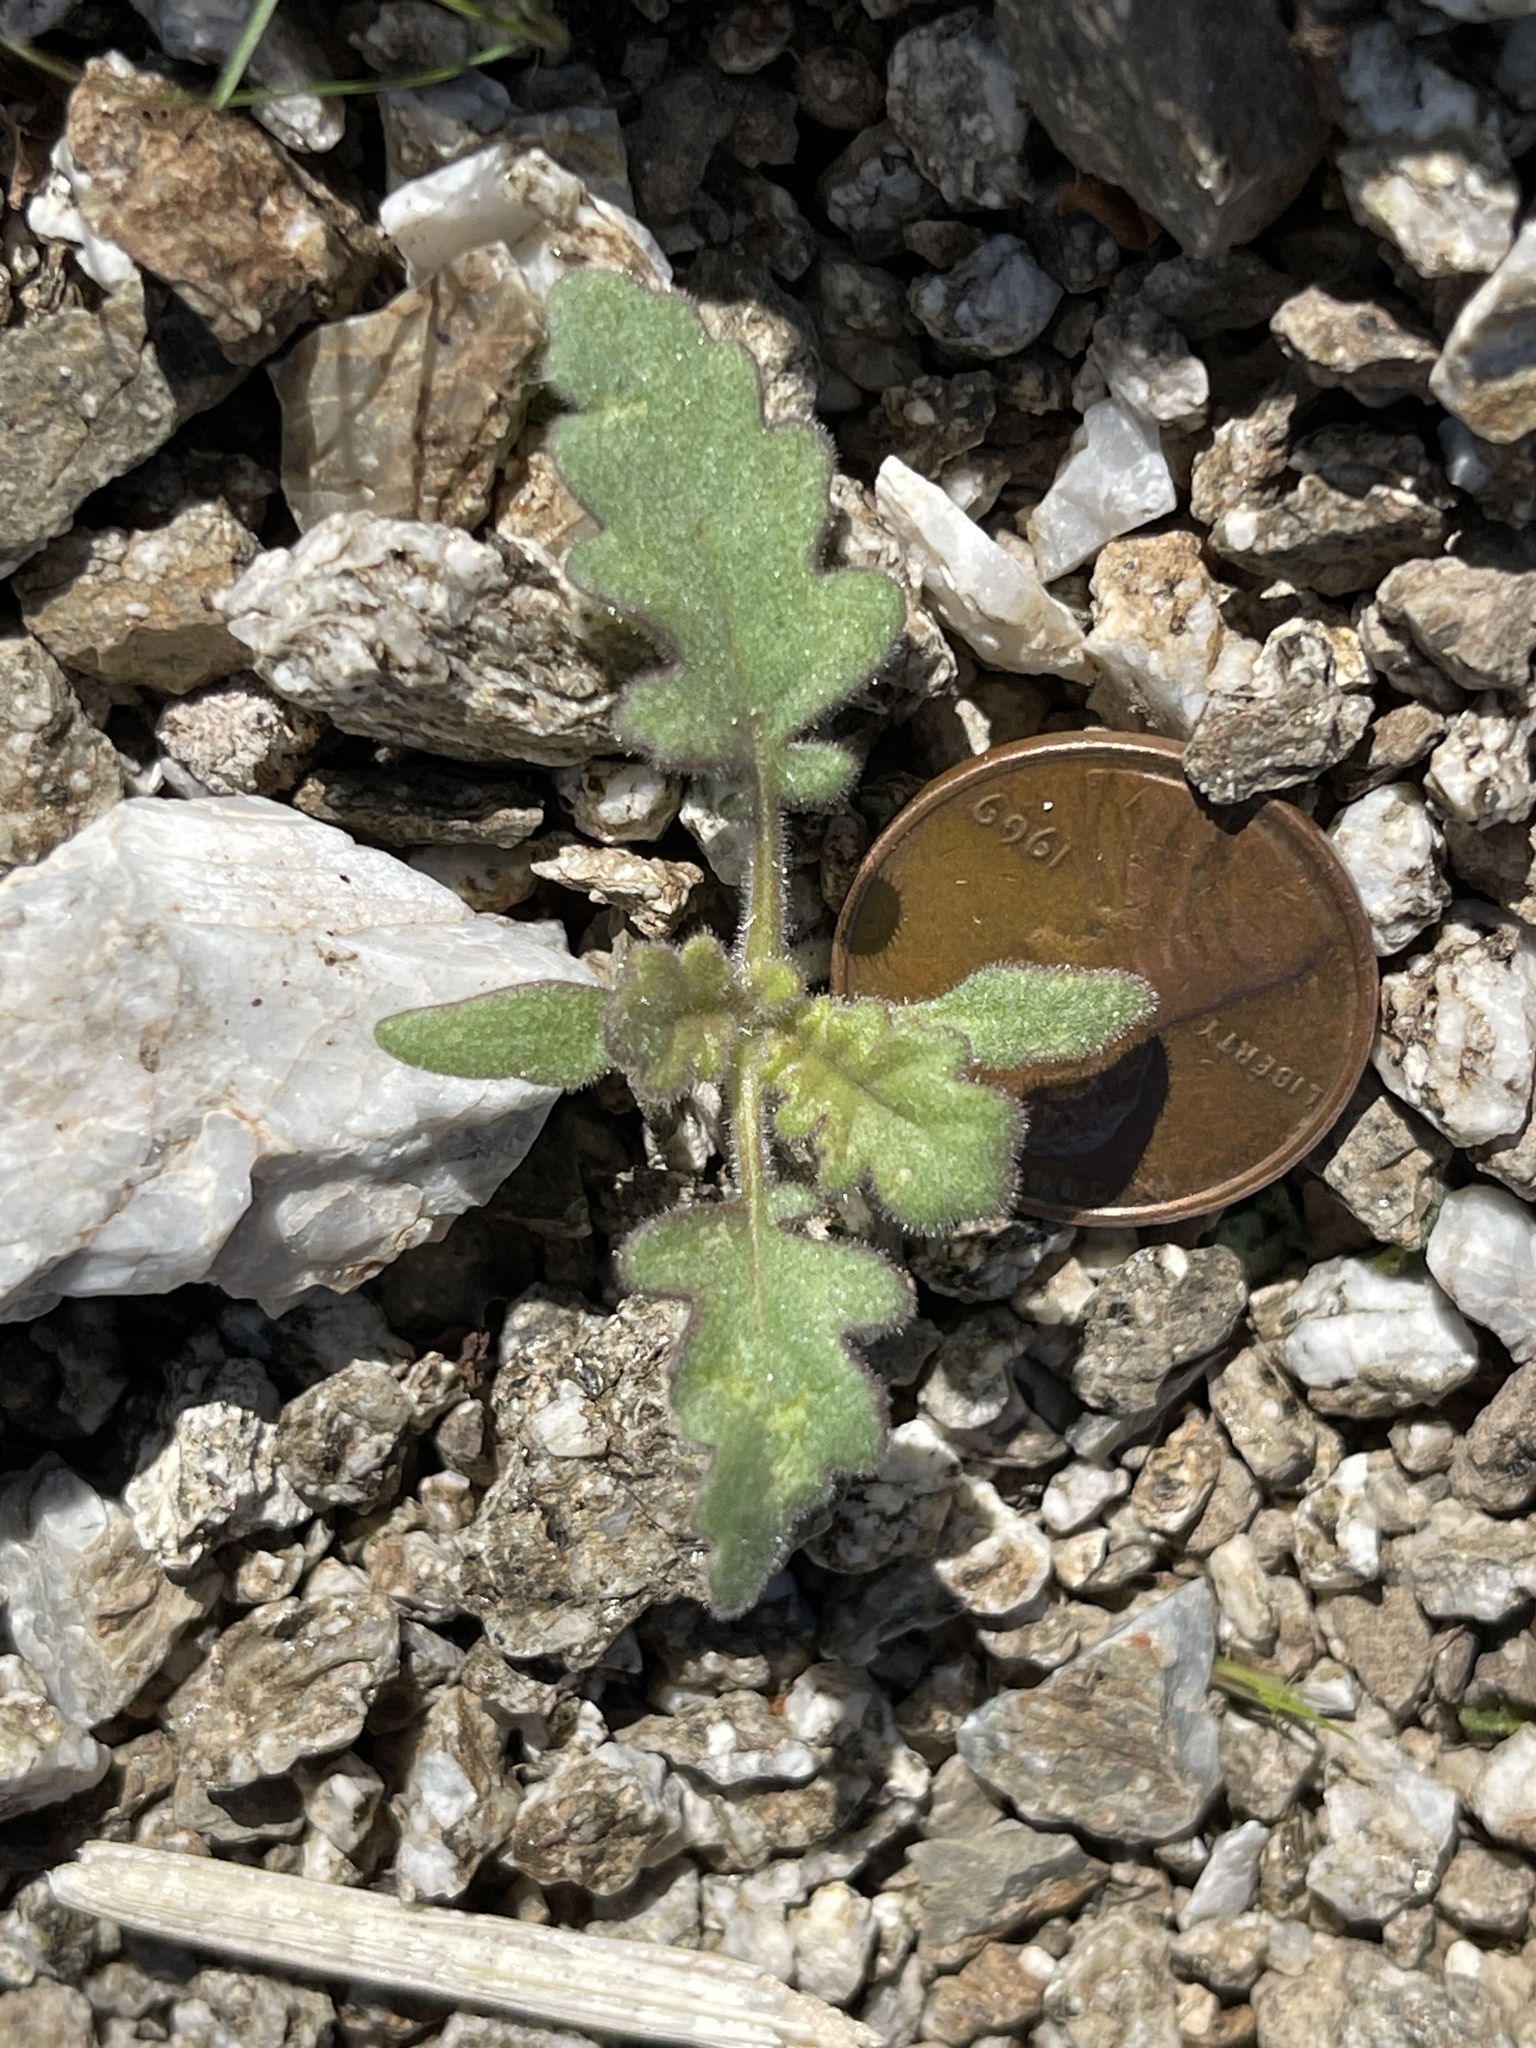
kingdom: Plantae
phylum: Tracheophyta
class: Magnoliopsida
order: Boraginales
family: Hydrophyllaceae
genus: Phacelia
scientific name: Phacelia crenulata
